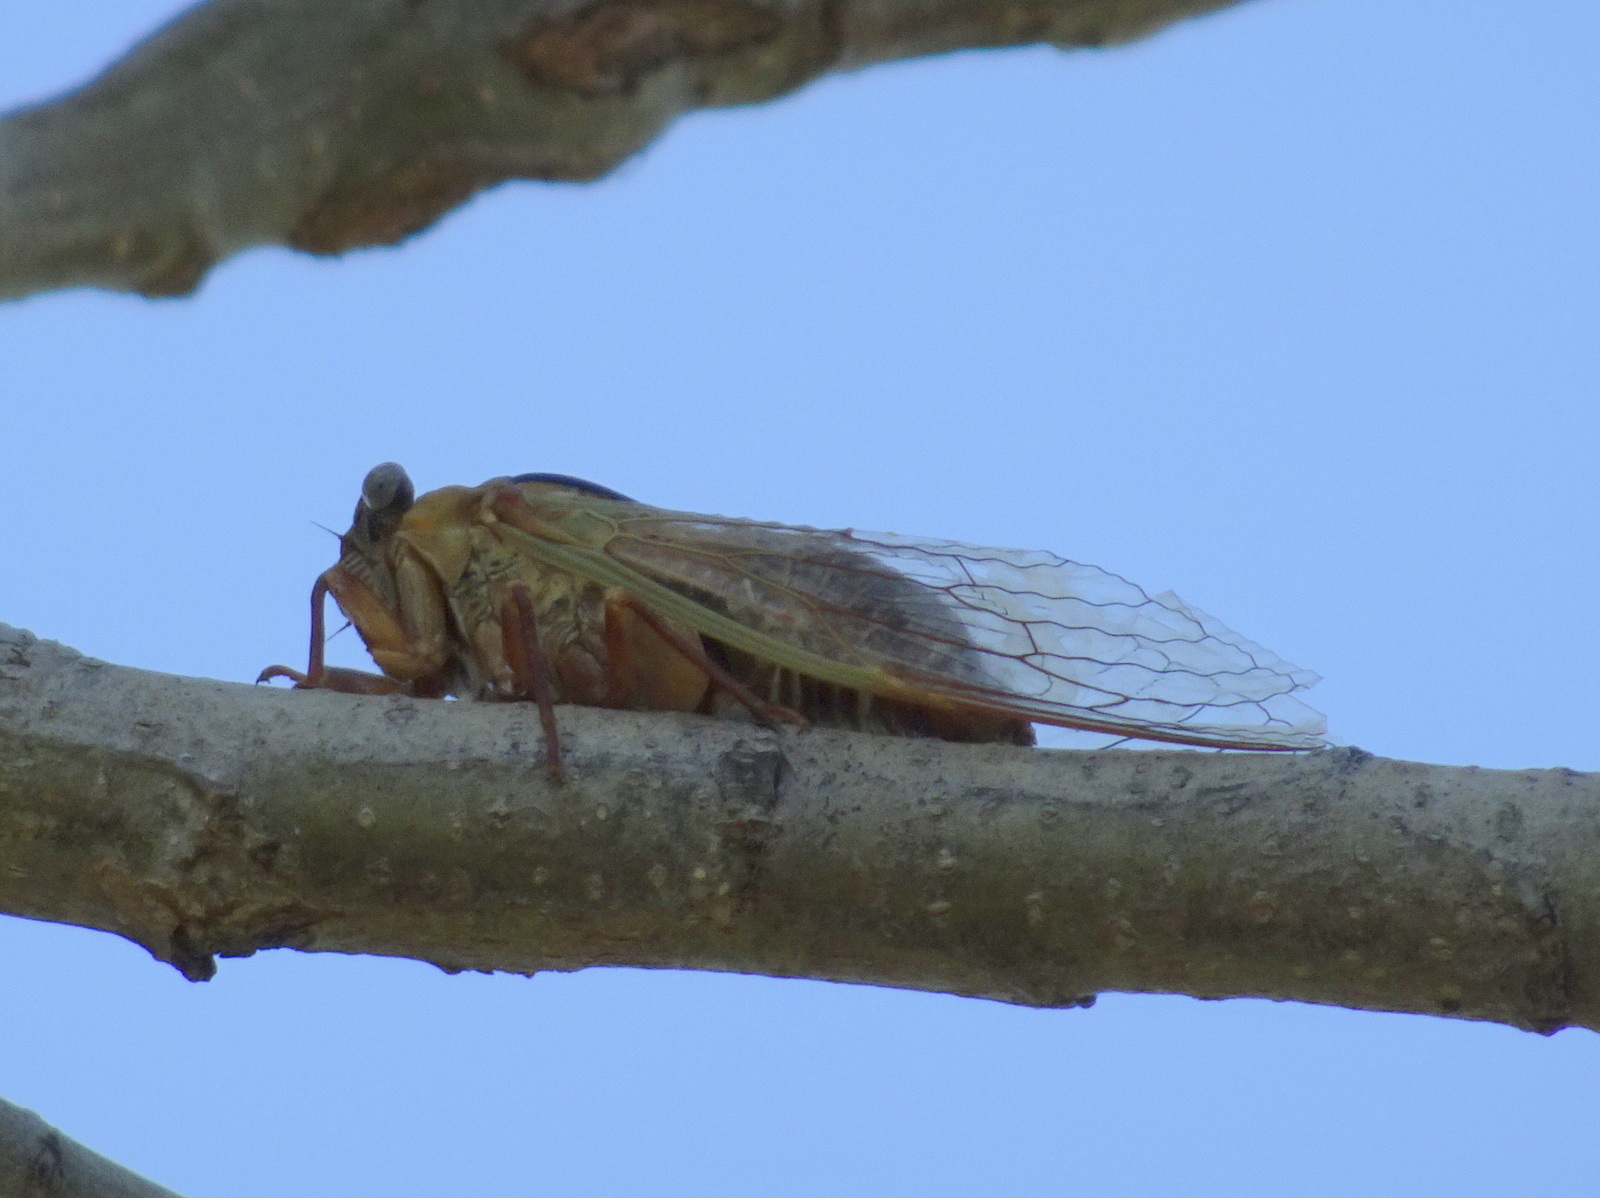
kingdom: Animalia
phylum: Arthropoda
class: Insecta
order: Hemiptera
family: Cicadidae
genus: Megatibicen
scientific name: Megatibicen pronotalis
